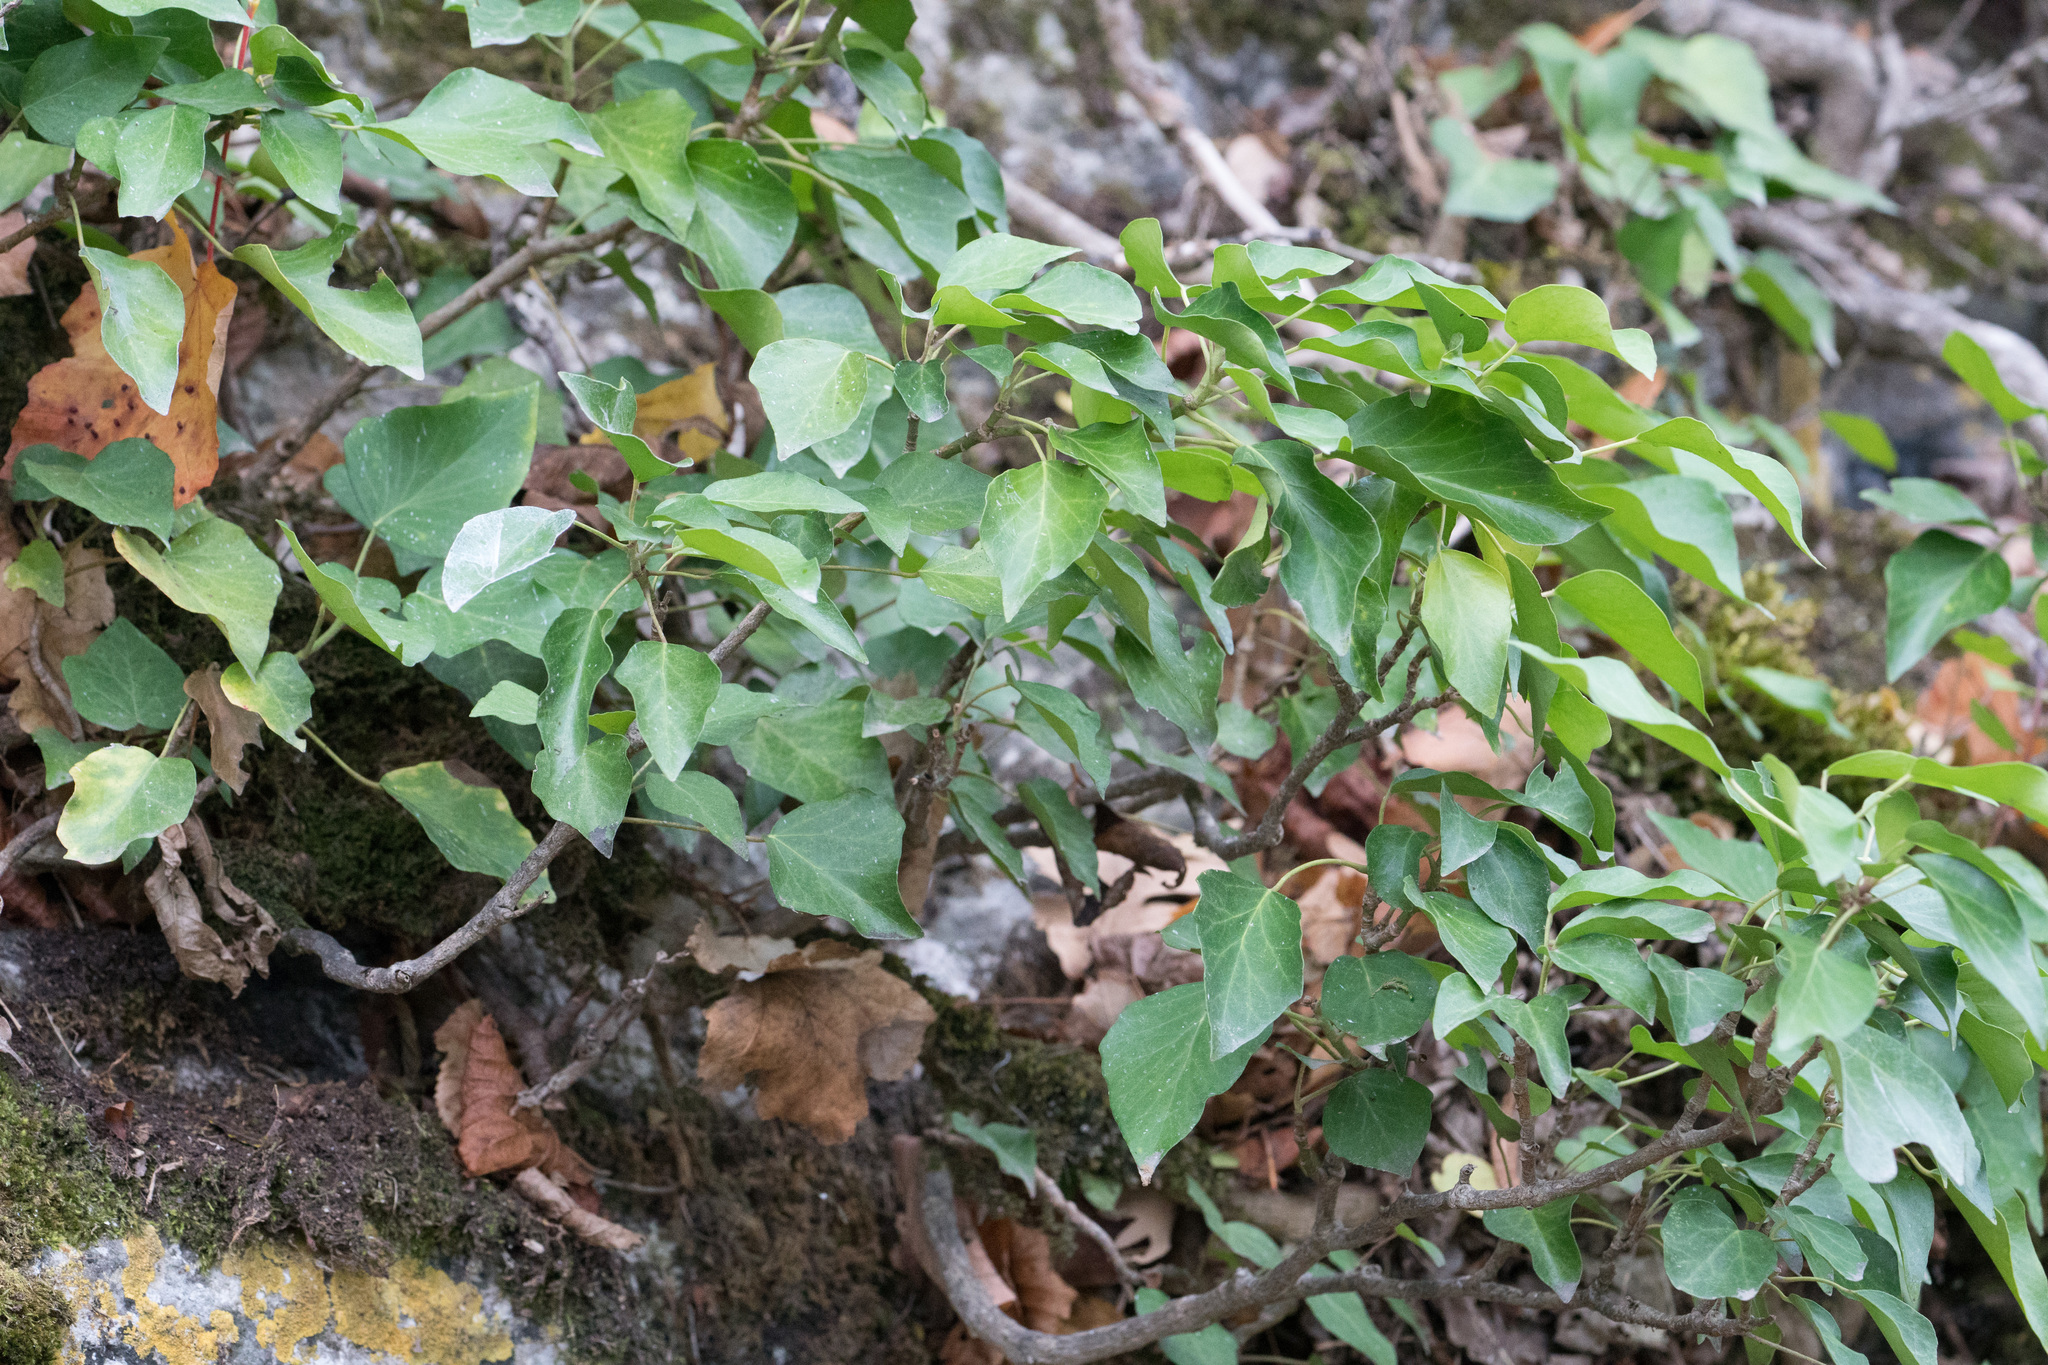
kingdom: Plantae
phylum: Tracheophyta
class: Magnoliopsida
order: Apiales
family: Araliaceae
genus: Hedera
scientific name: Hedera helix
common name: Ivy
